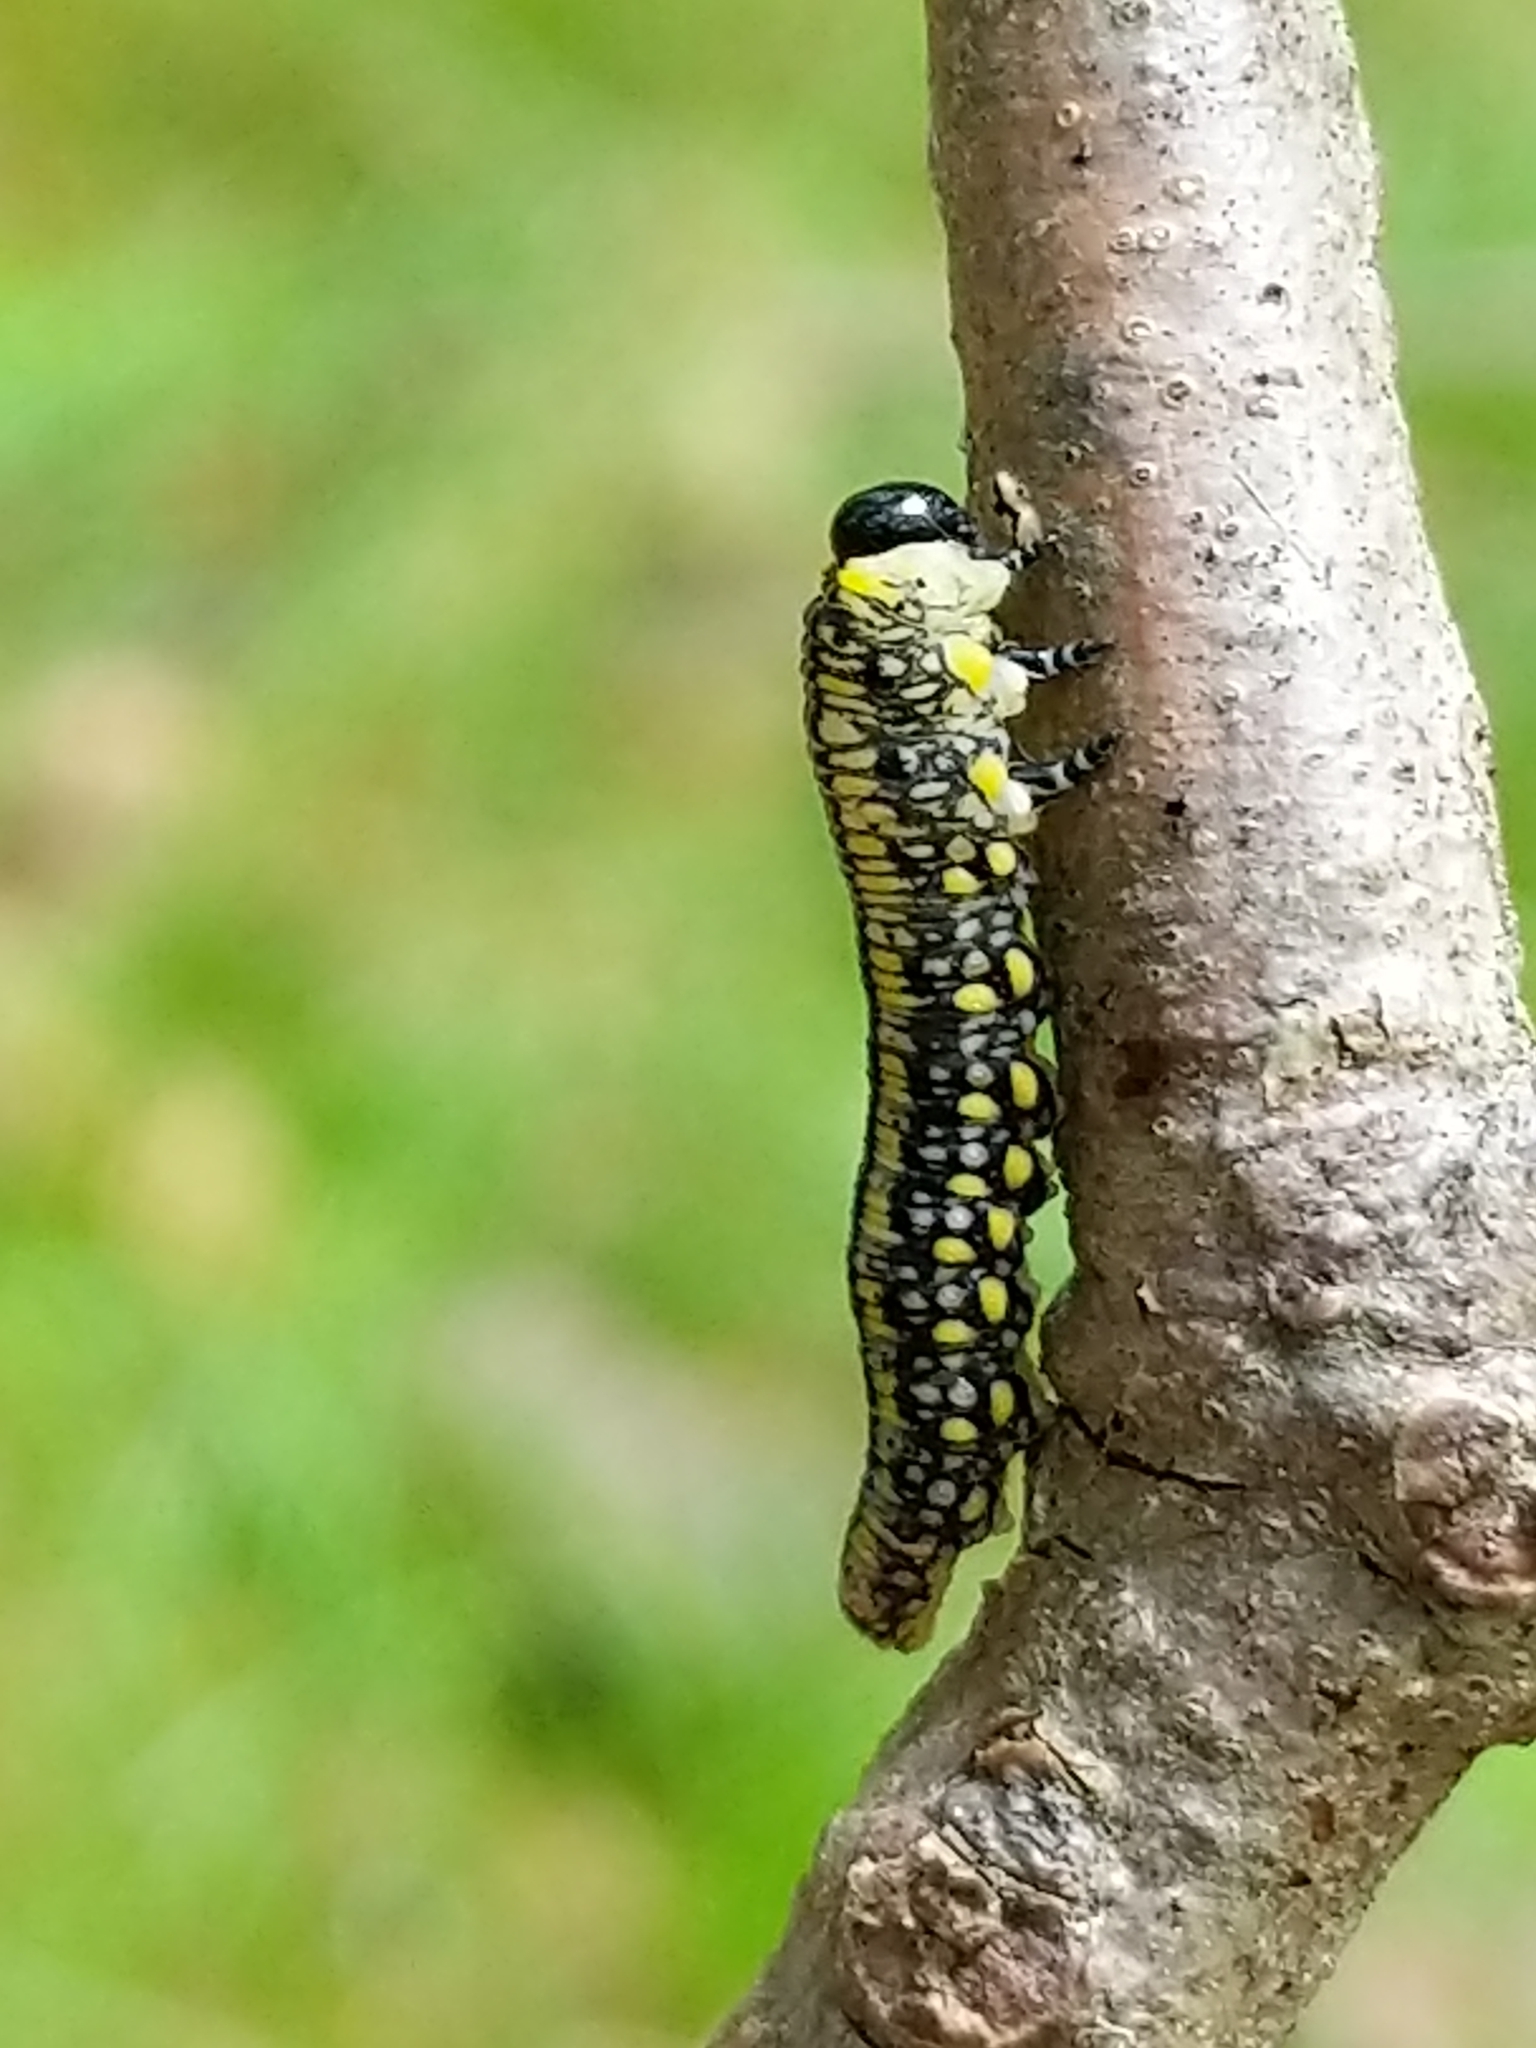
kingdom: Animalia
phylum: Arthropoda
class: Insecta
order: Hymenoptera
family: Diprionidae
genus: Diprion
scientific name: Diprion similis
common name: Pine sawfly
